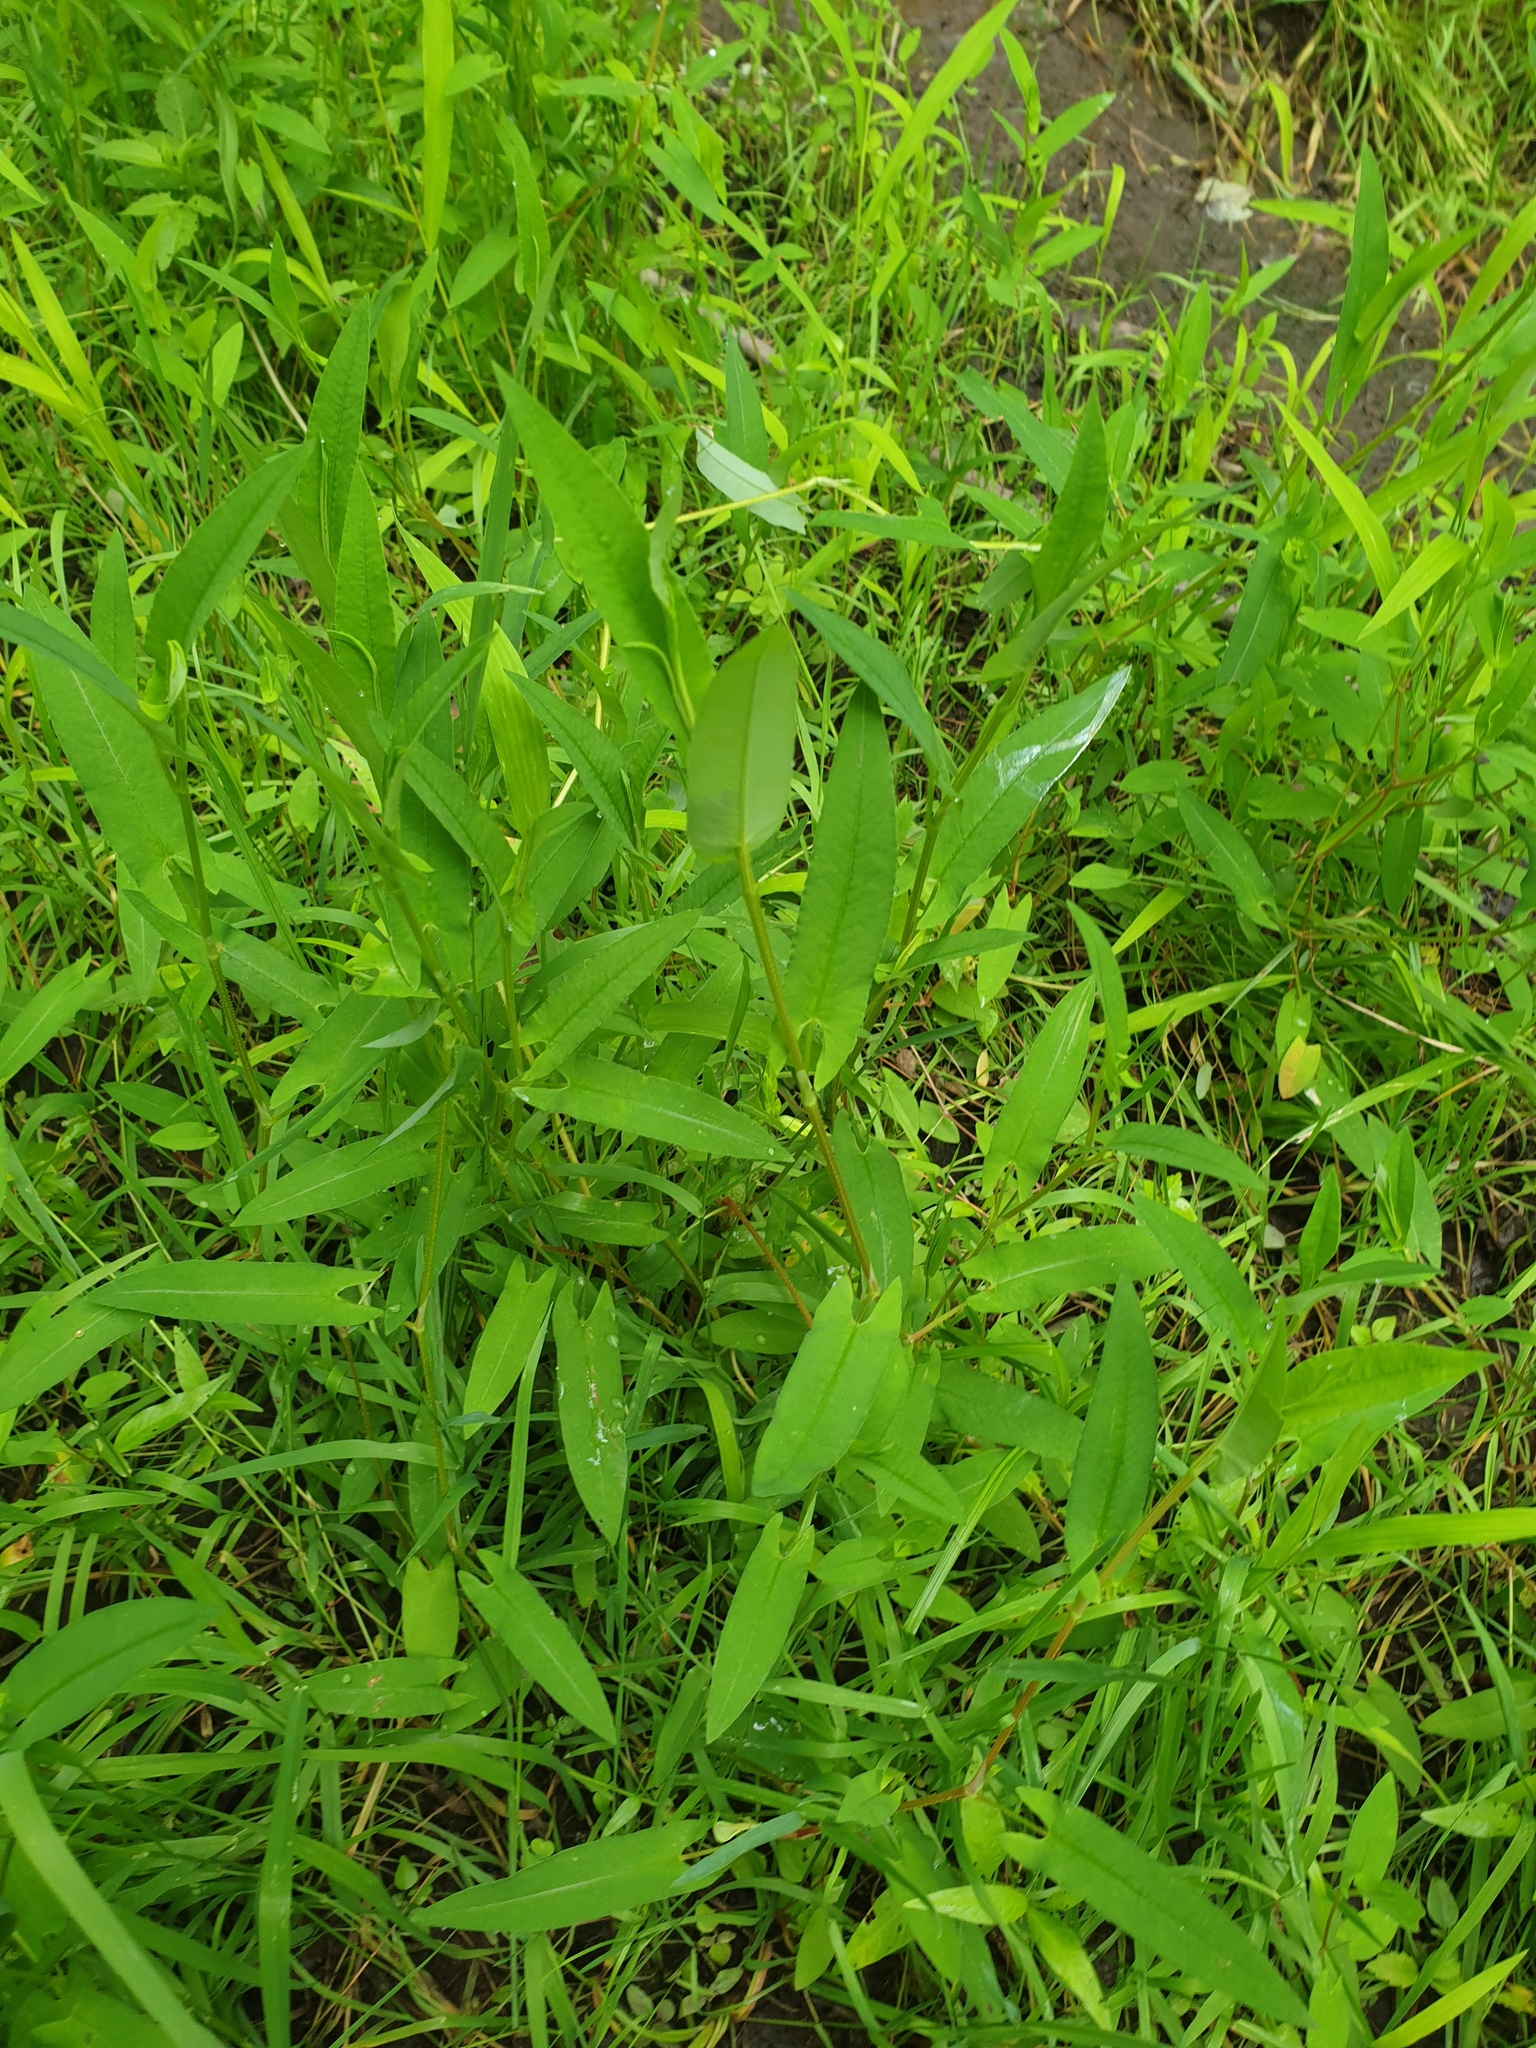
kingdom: Plantae
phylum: Tracheophyta
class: Magnoliopsida
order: Caryophyllales
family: Polygonaceae
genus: Persicaria
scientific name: Persicaria sagittata
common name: American tearthumb
